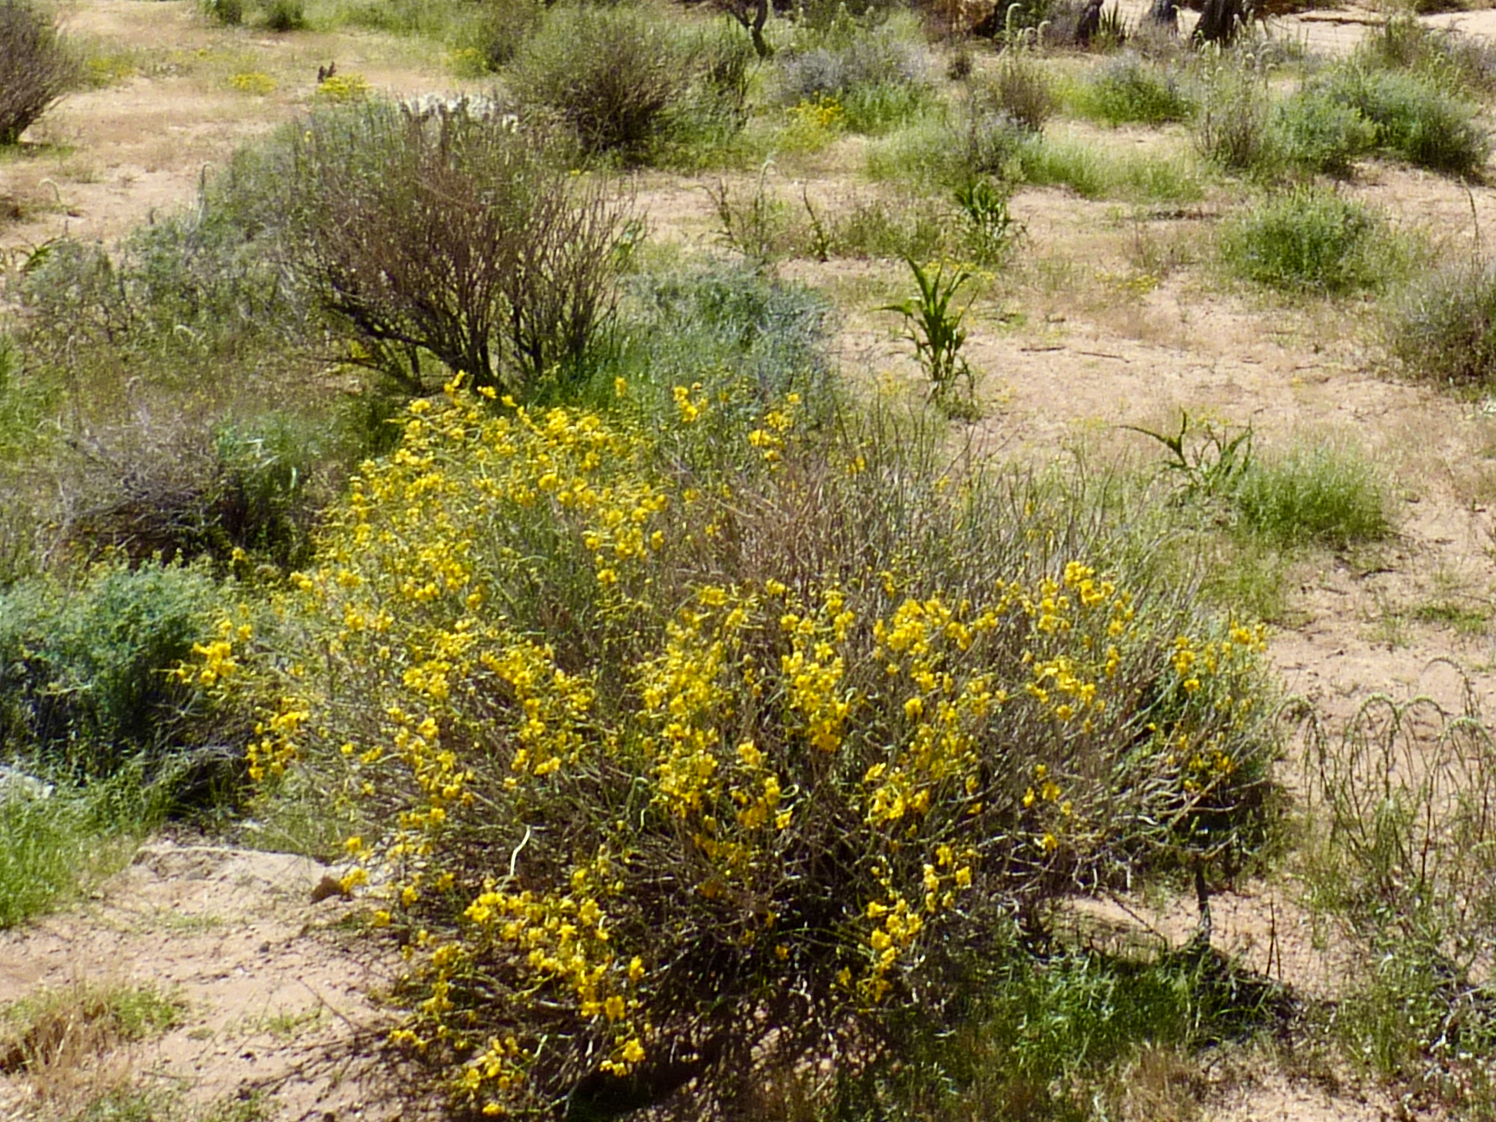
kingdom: Plantae
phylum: Tracheophyta
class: Magnoliopsida
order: Fabales
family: Fabaceae
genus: Senna
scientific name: Senna armata
